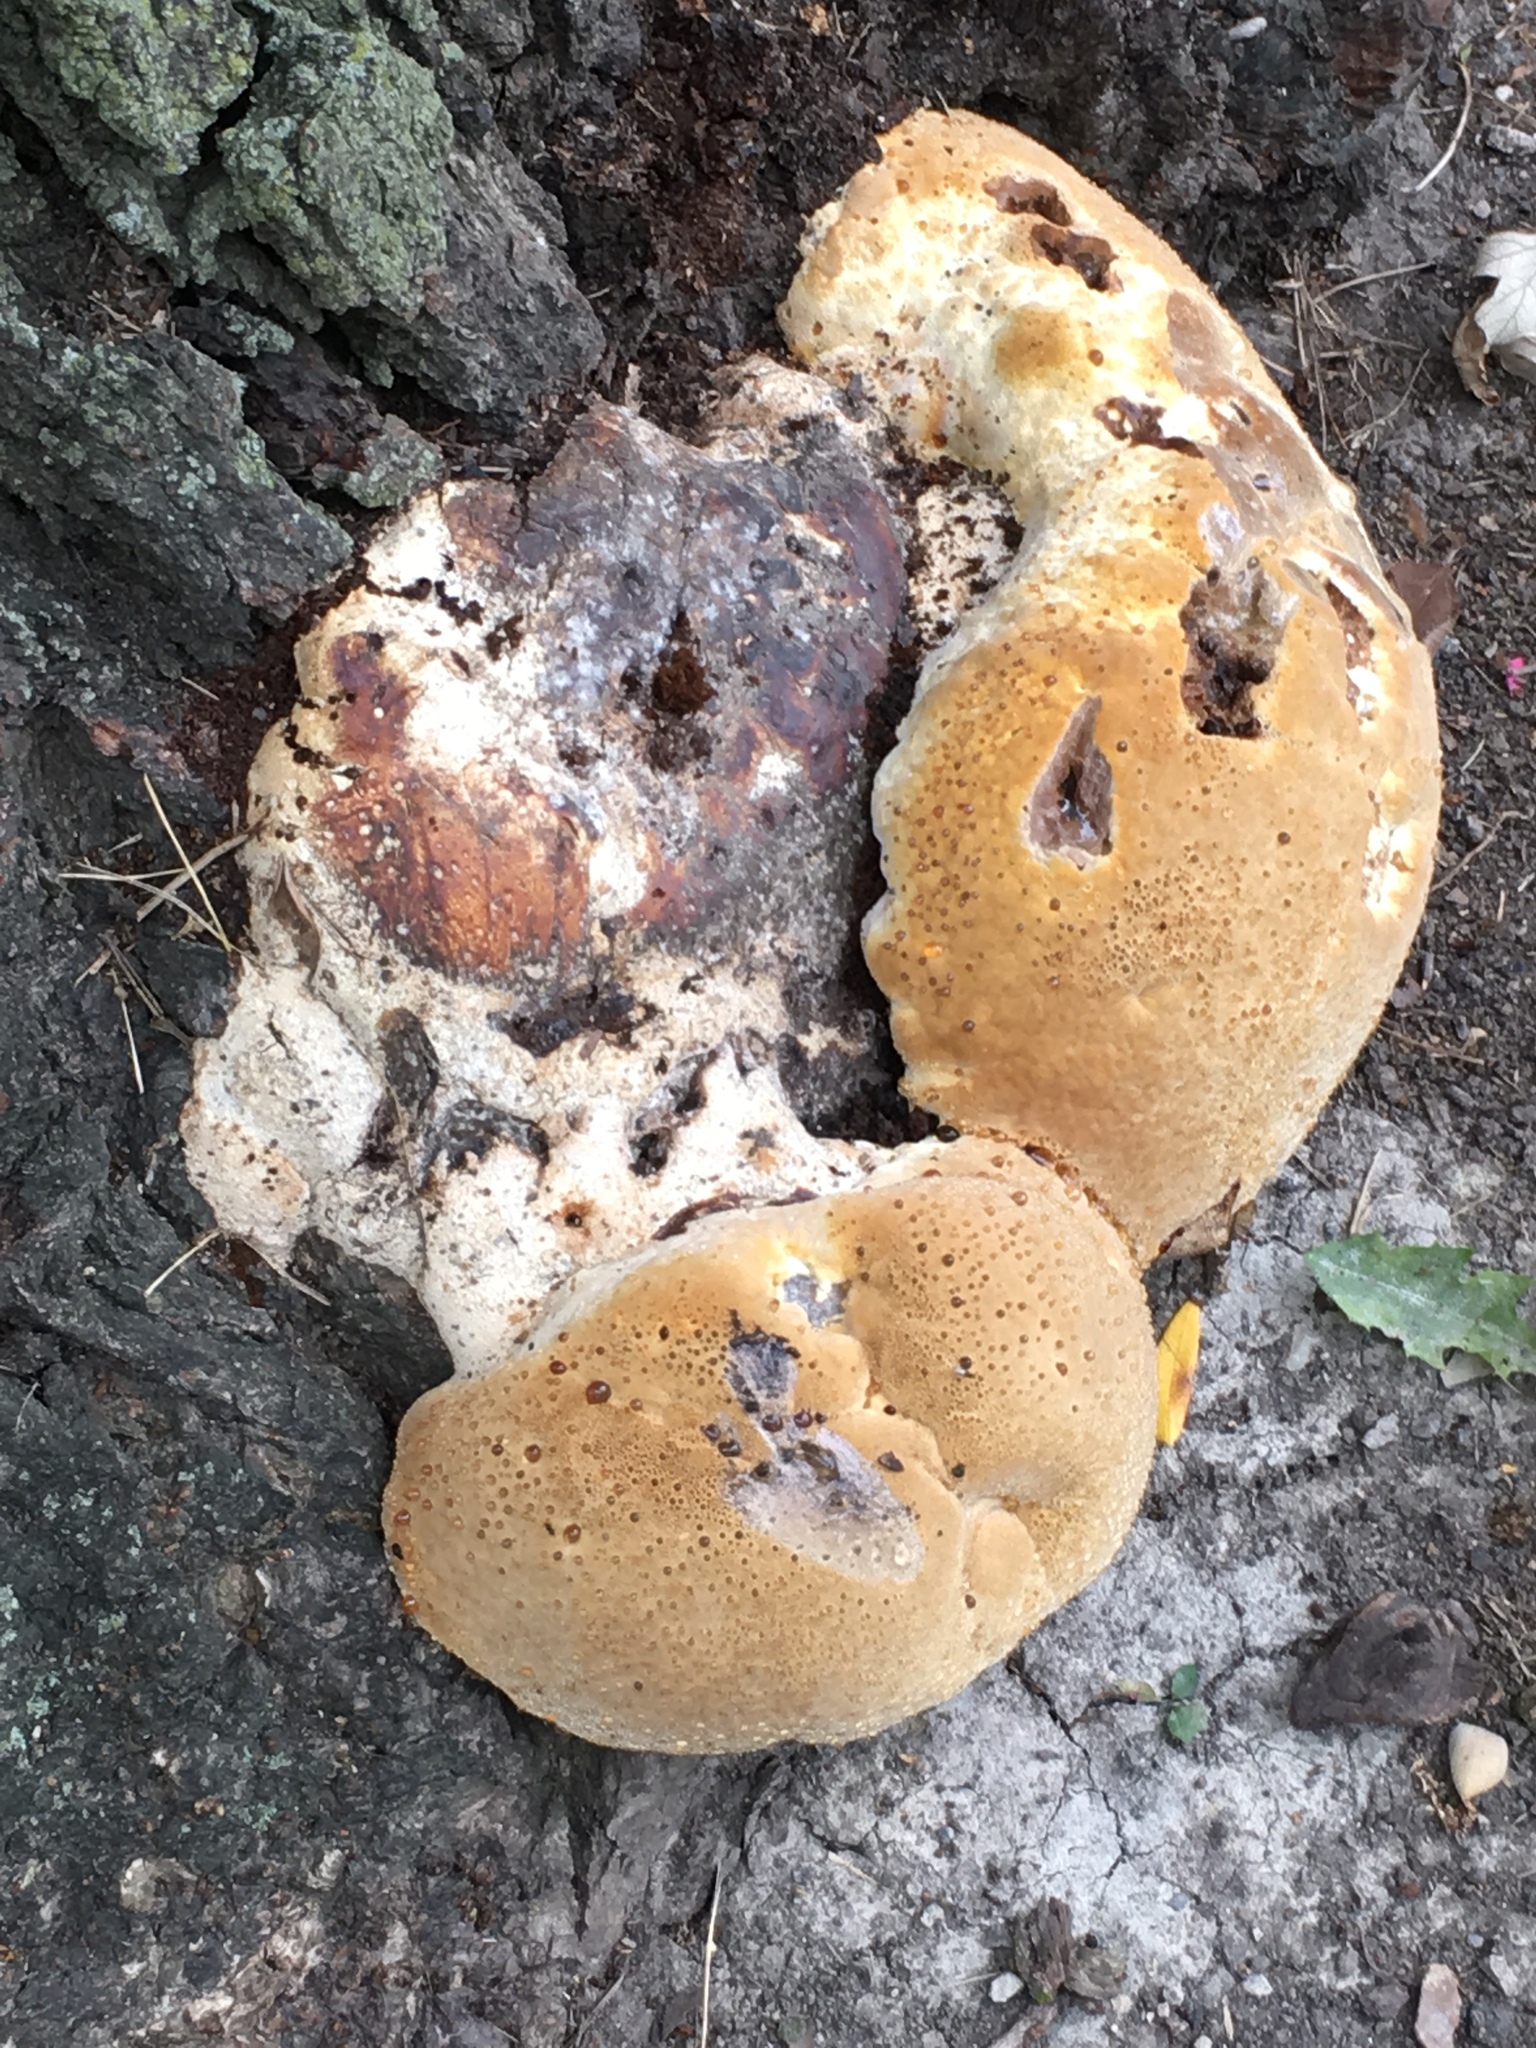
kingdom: Fungi
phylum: Basidiomycota
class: Agaricomycetes
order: Hymenochaetales
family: Hymenochaetaceae
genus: Pseudoinonotus
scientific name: Pseudoinonotus dryadeus
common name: Oak bracket
